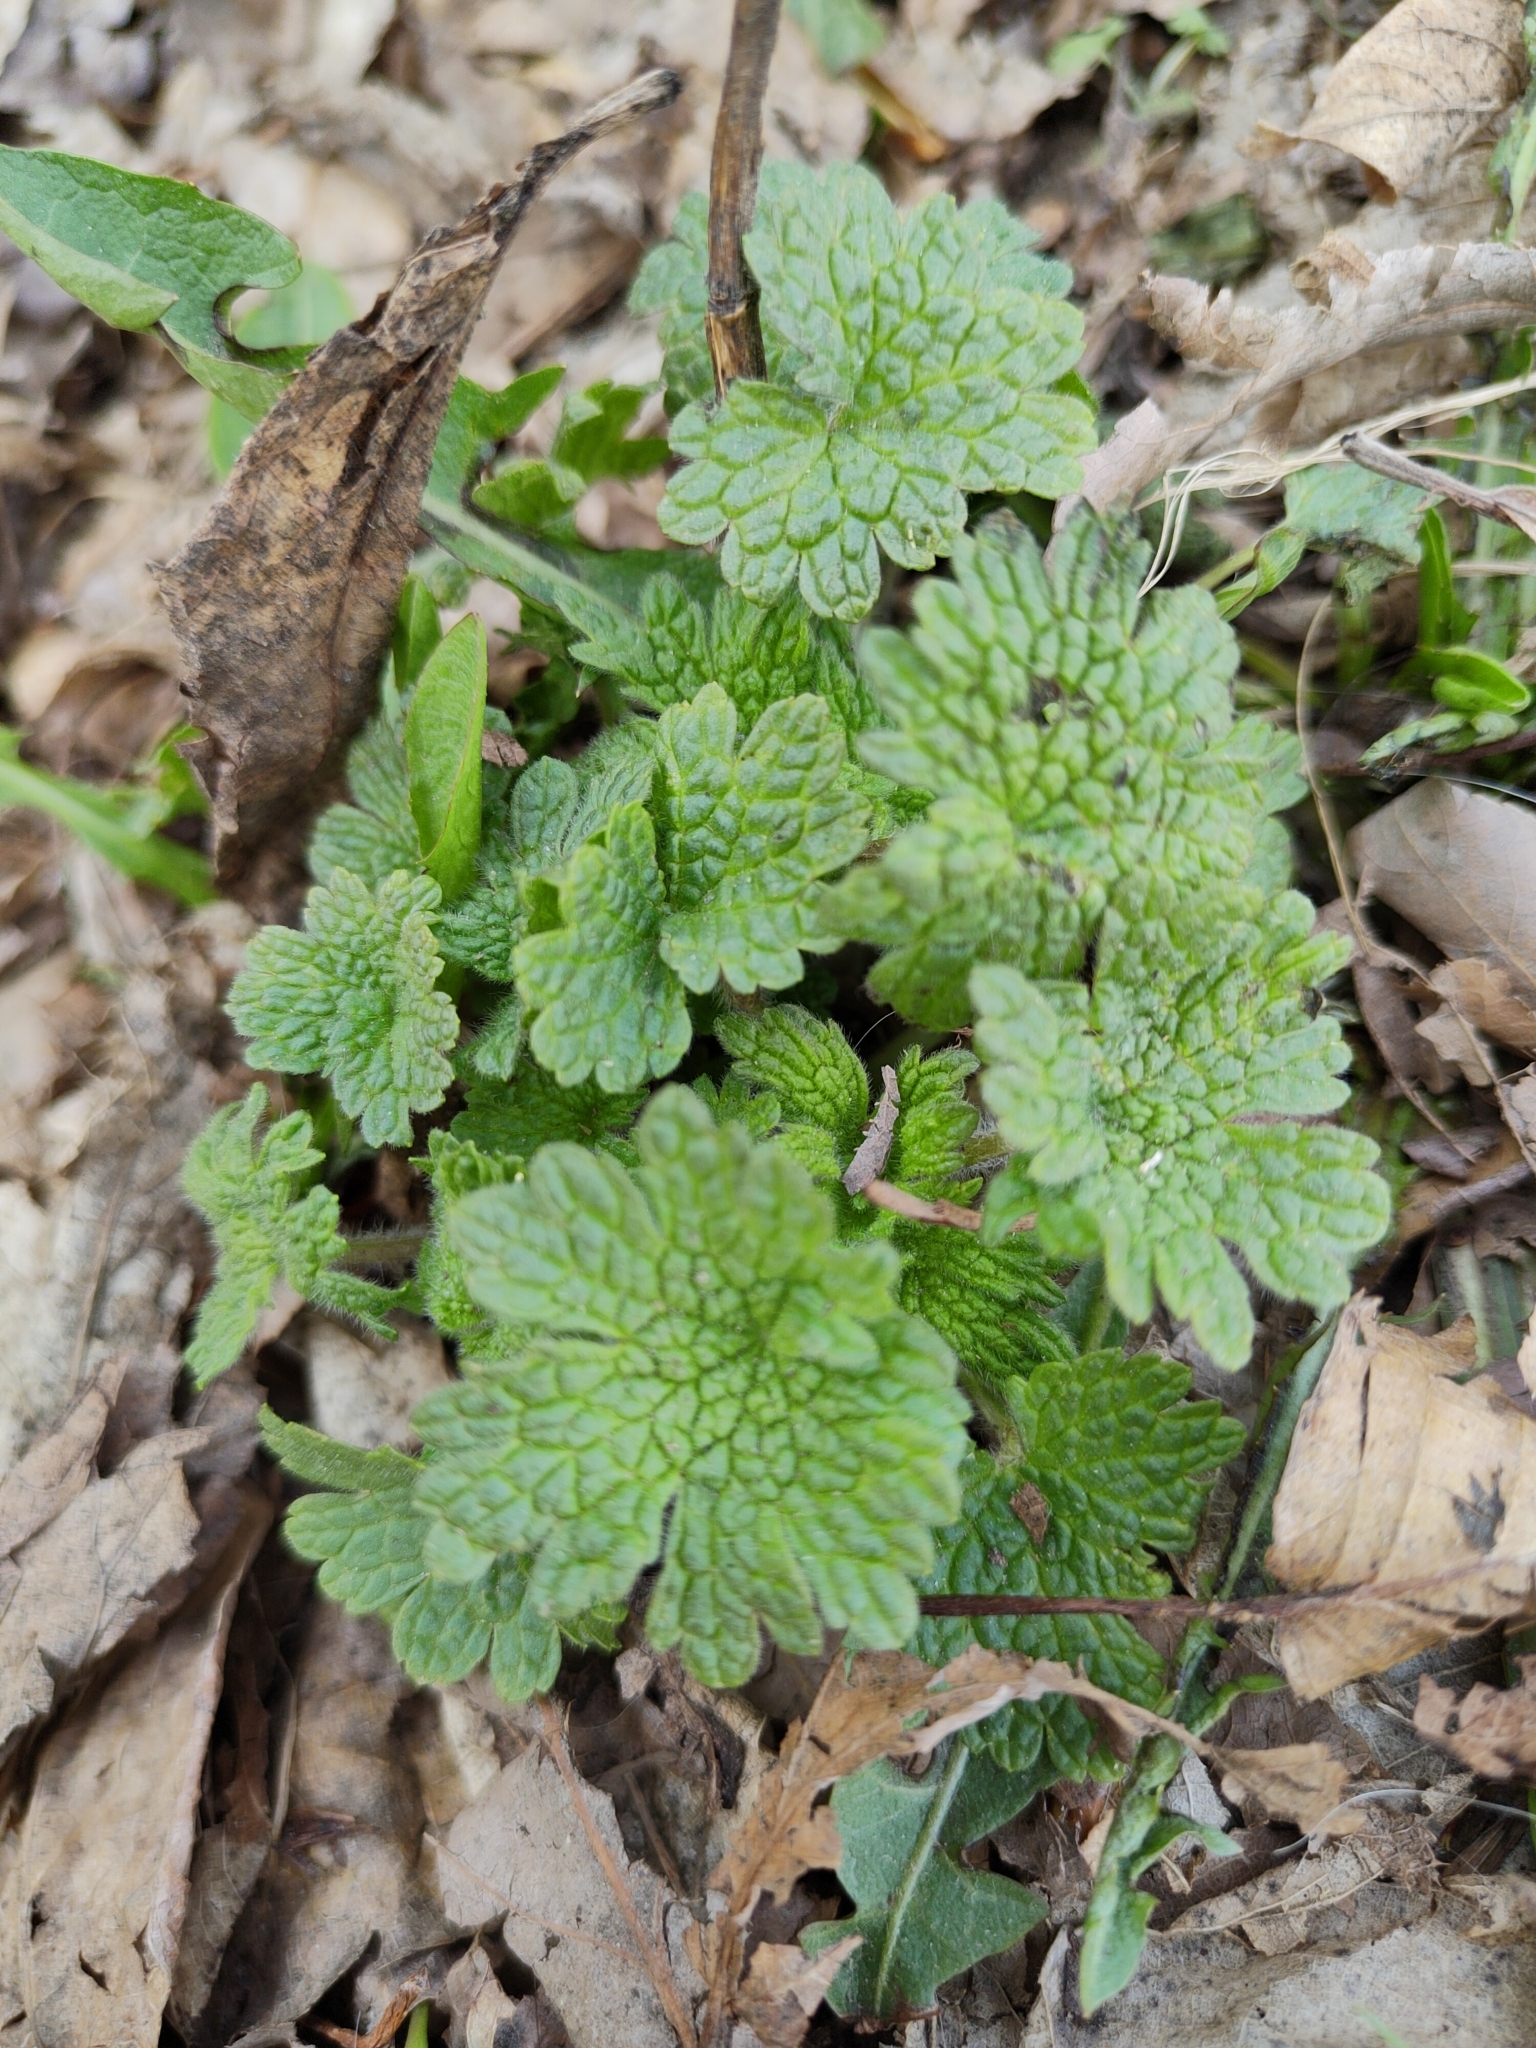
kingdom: Plantae
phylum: Tracheophyta
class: Magnoliopsida
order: Lamiales
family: Lamiaceae
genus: Leonurus
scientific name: Leonurus quinquelobatus
